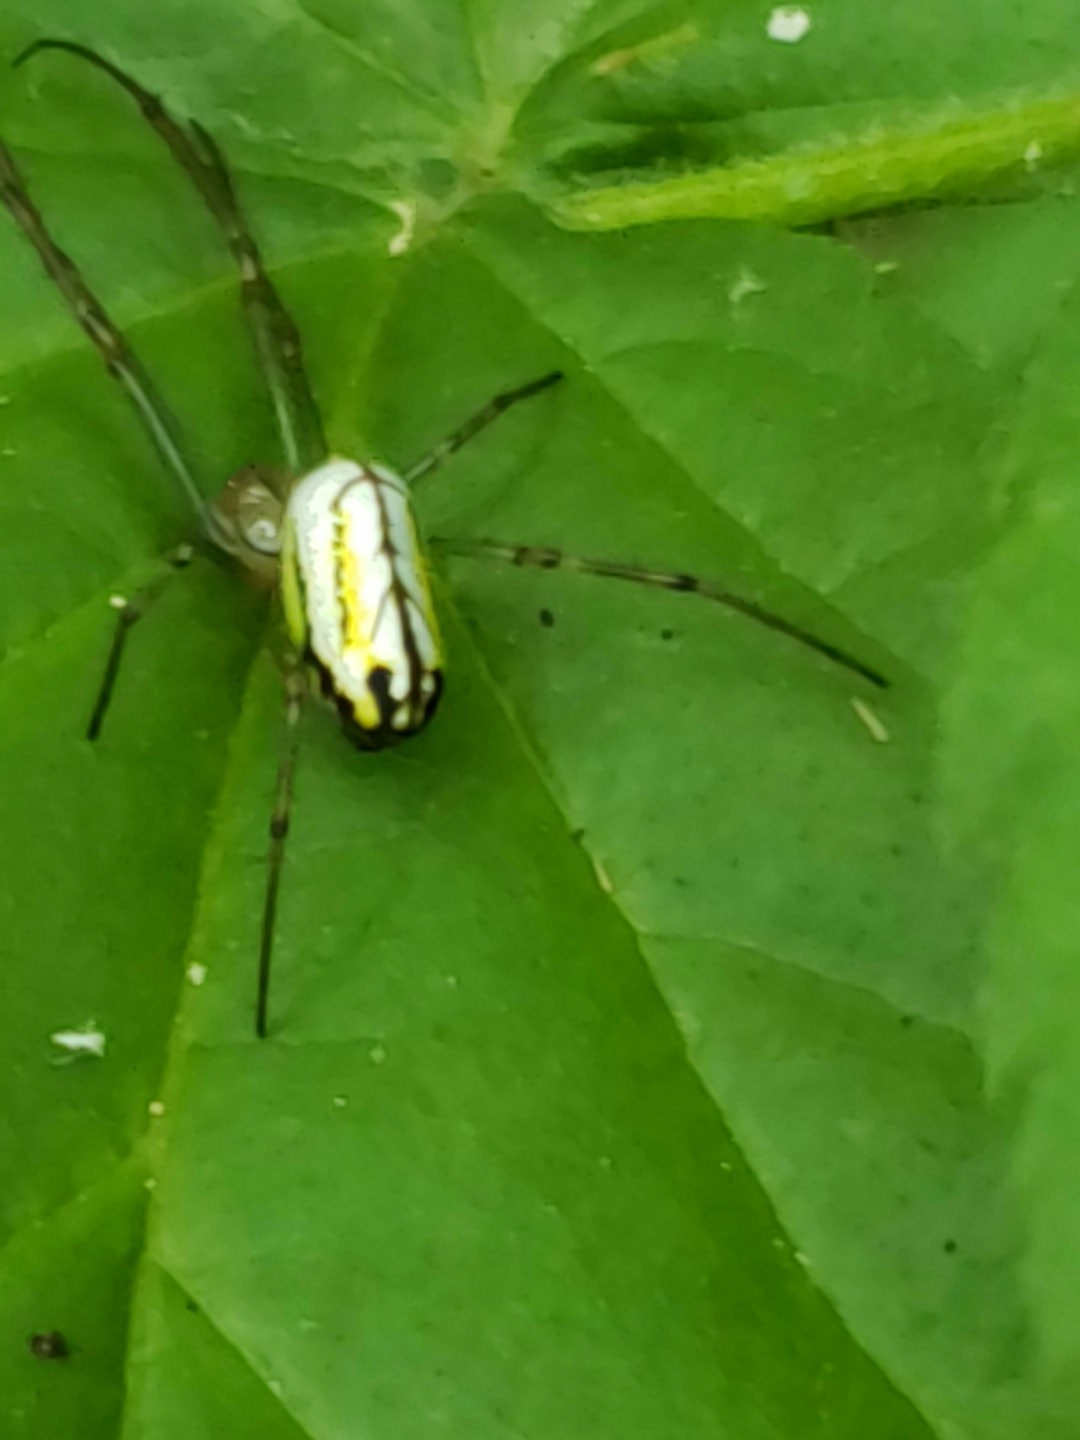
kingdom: Animalia
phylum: Arthropoda
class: Arachnida
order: Araneae
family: Tetragnathidae
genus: Leucauge
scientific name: Leucauge venusta
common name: Longjawed orb weavers
